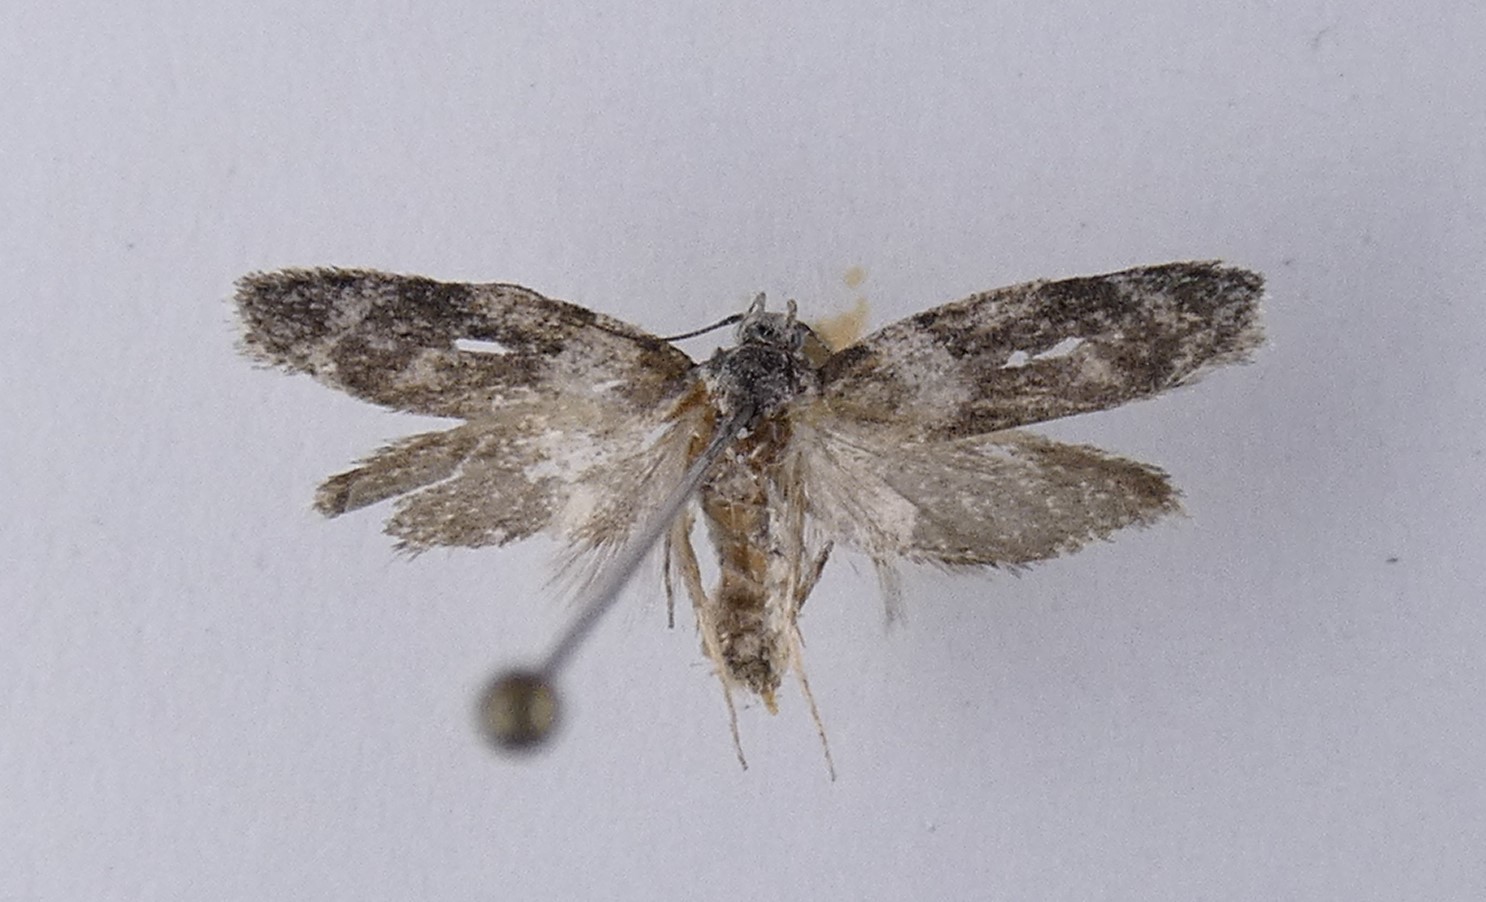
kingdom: Animalia
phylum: Arthropoda
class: Insecta
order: Lepidoptera
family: Oecophoridae
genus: Izatha
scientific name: Izatha convulsella
